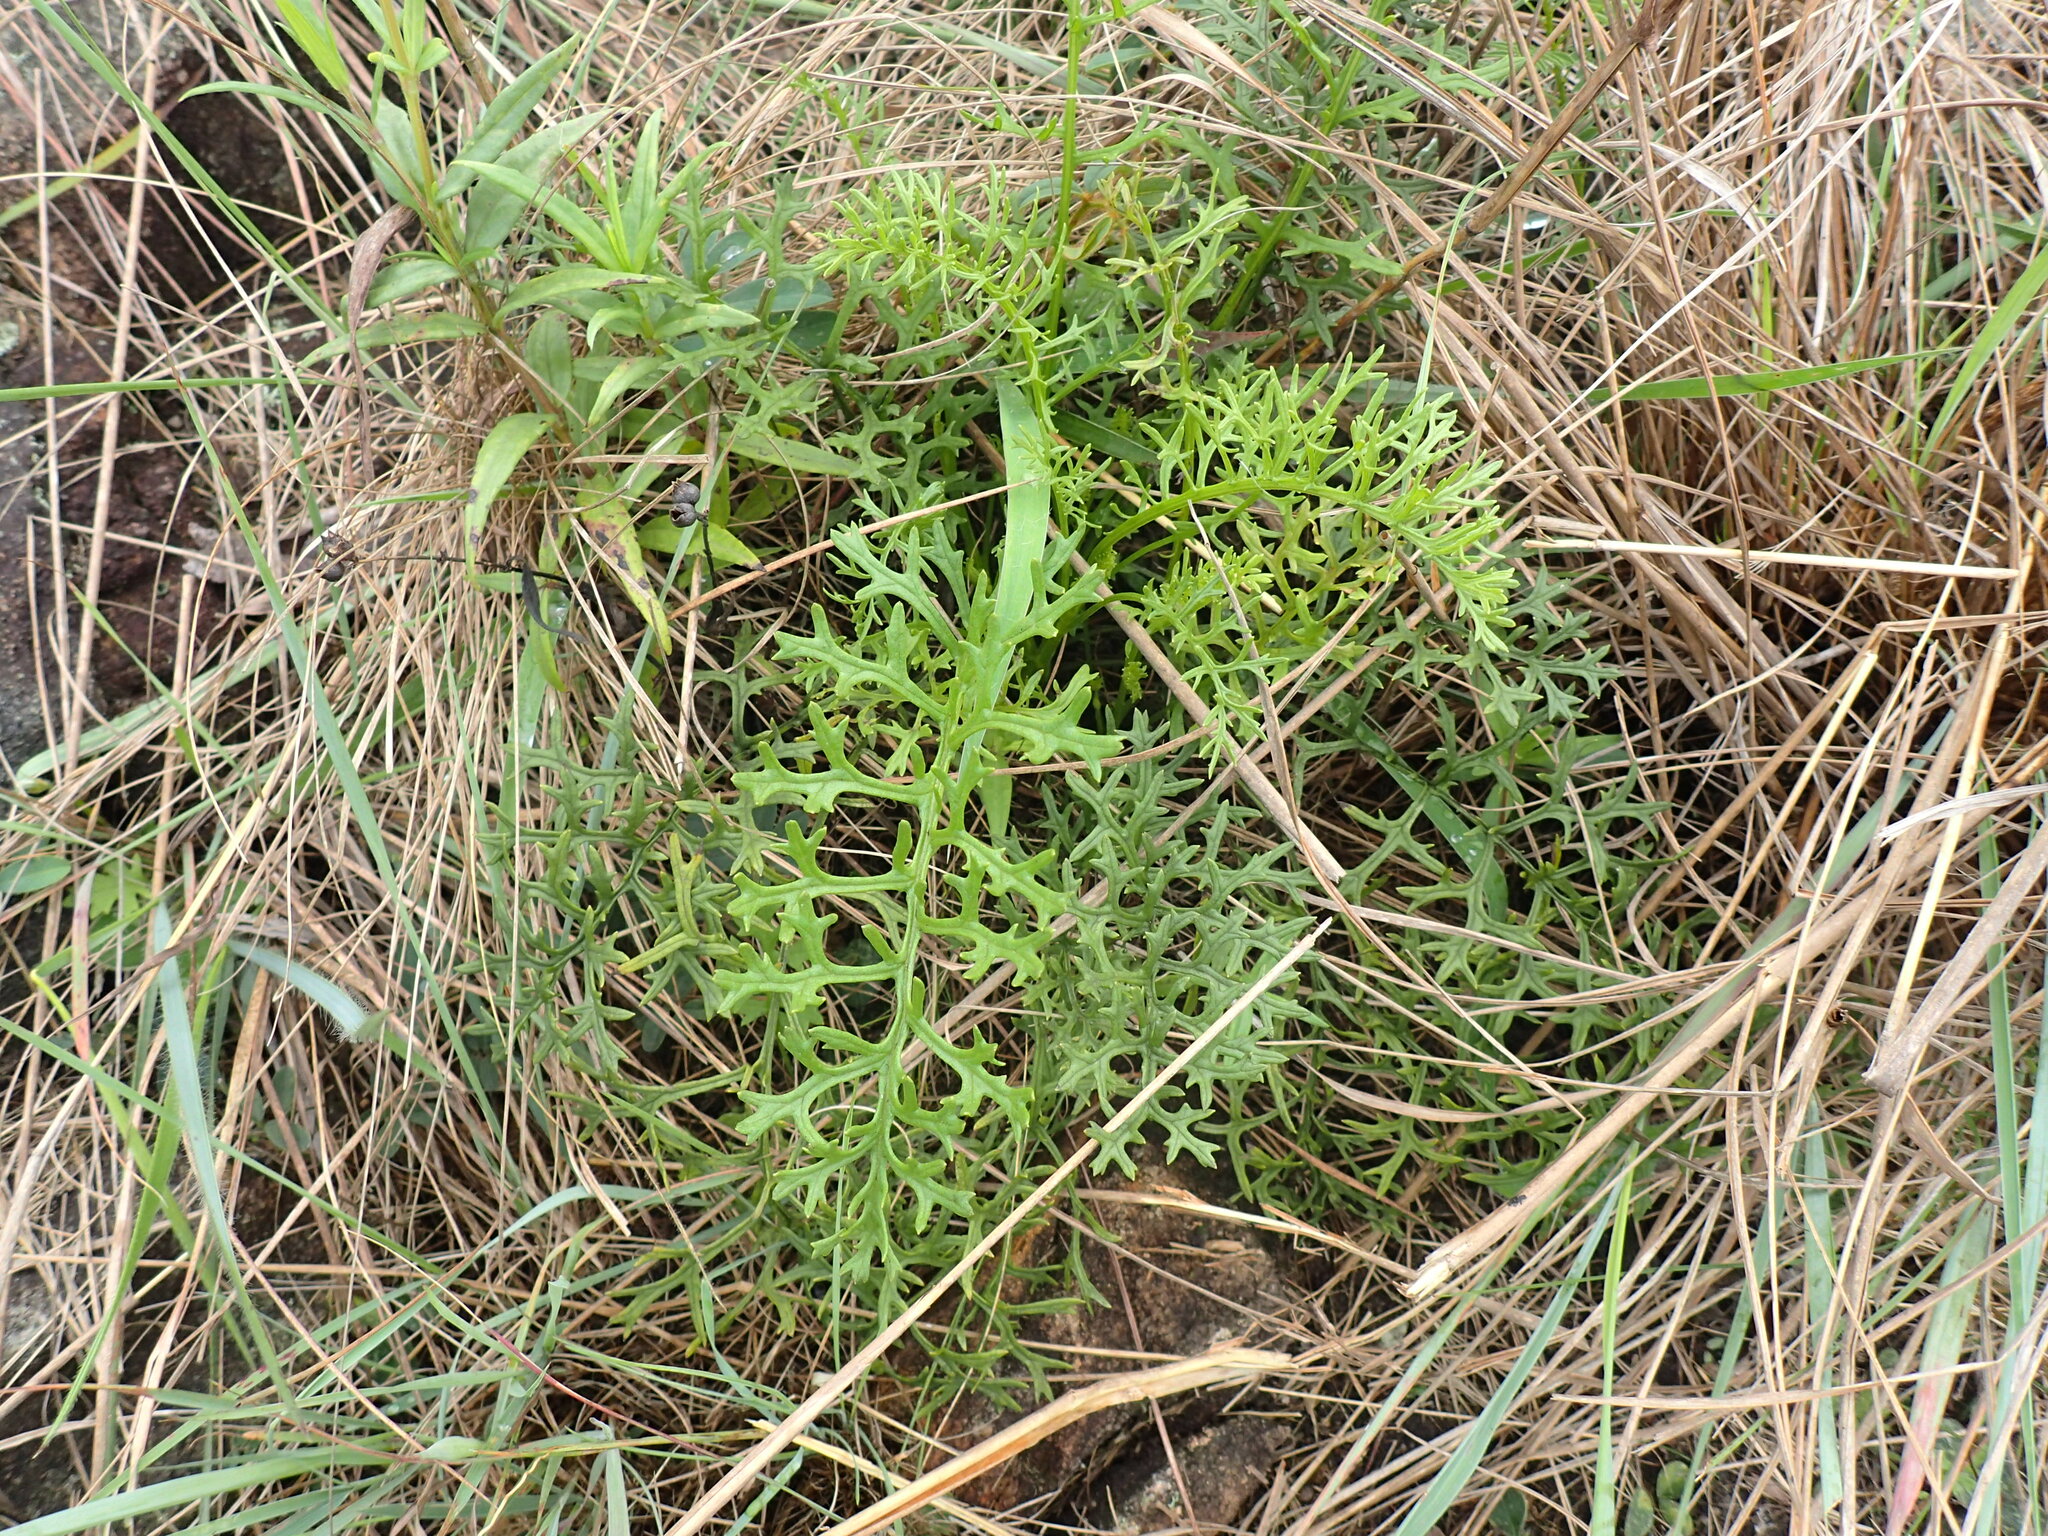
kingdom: Plantae
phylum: Tracheophyta
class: Magnoliopsida
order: Asterales
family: Asteraceae
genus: Senecio
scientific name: Senecio rhyncholaenus
